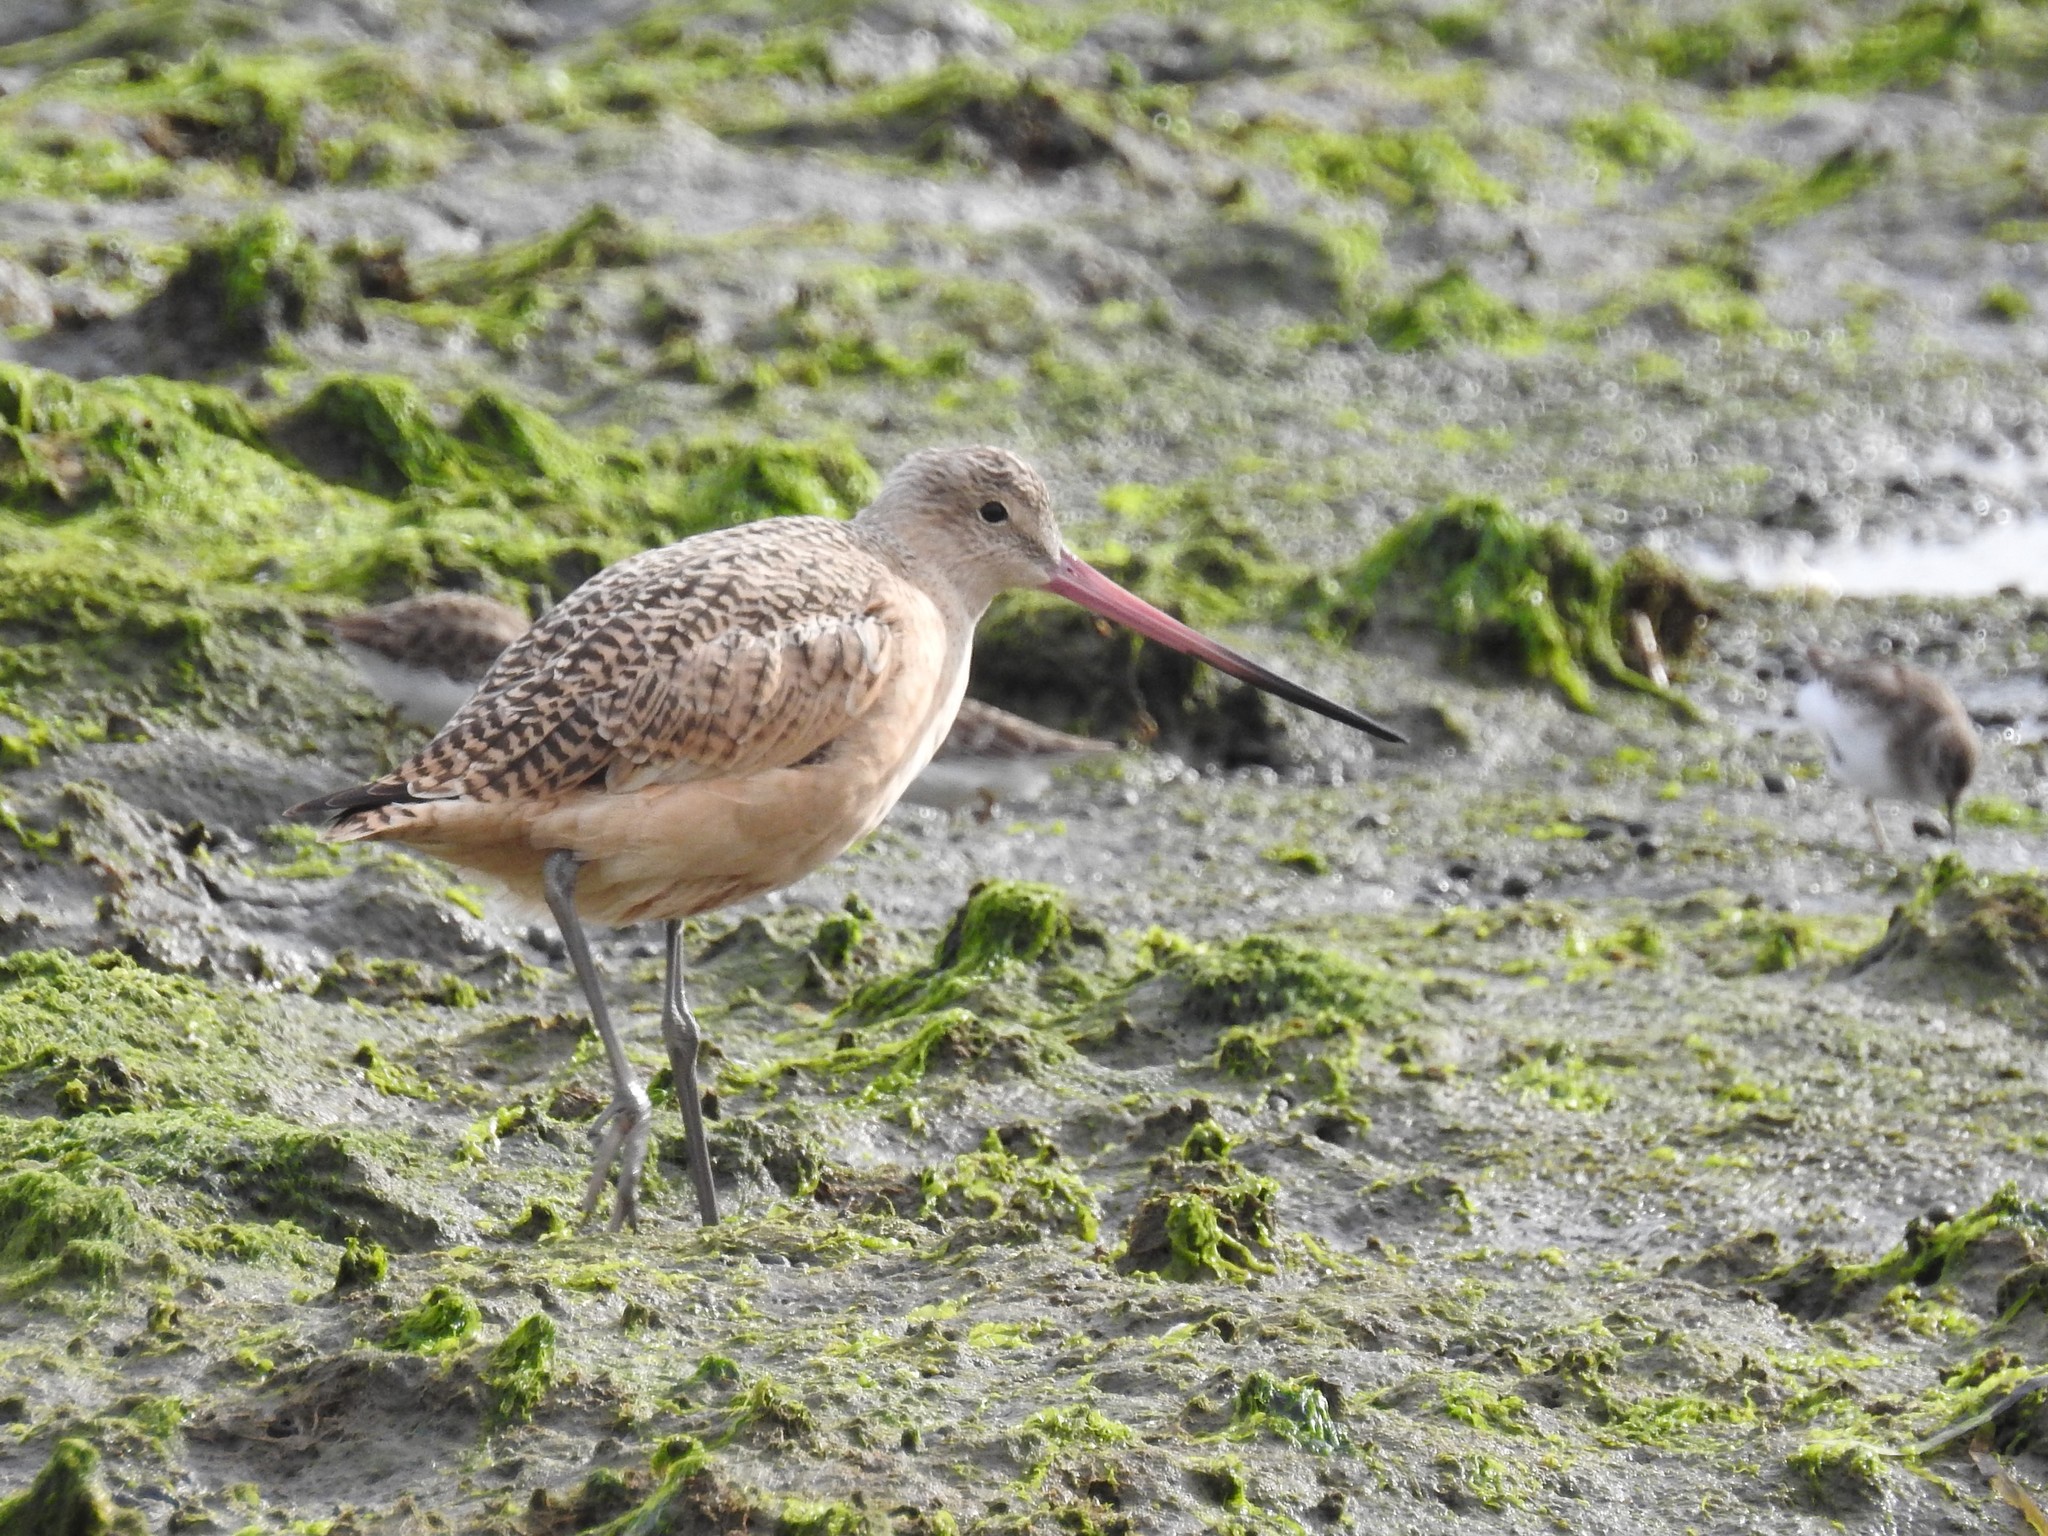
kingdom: Animalia
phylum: Chordata
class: Aves
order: Charadriiformes
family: Scolopacidae
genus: Limosa
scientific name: Limosa fedoa
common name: Marbled godwit
